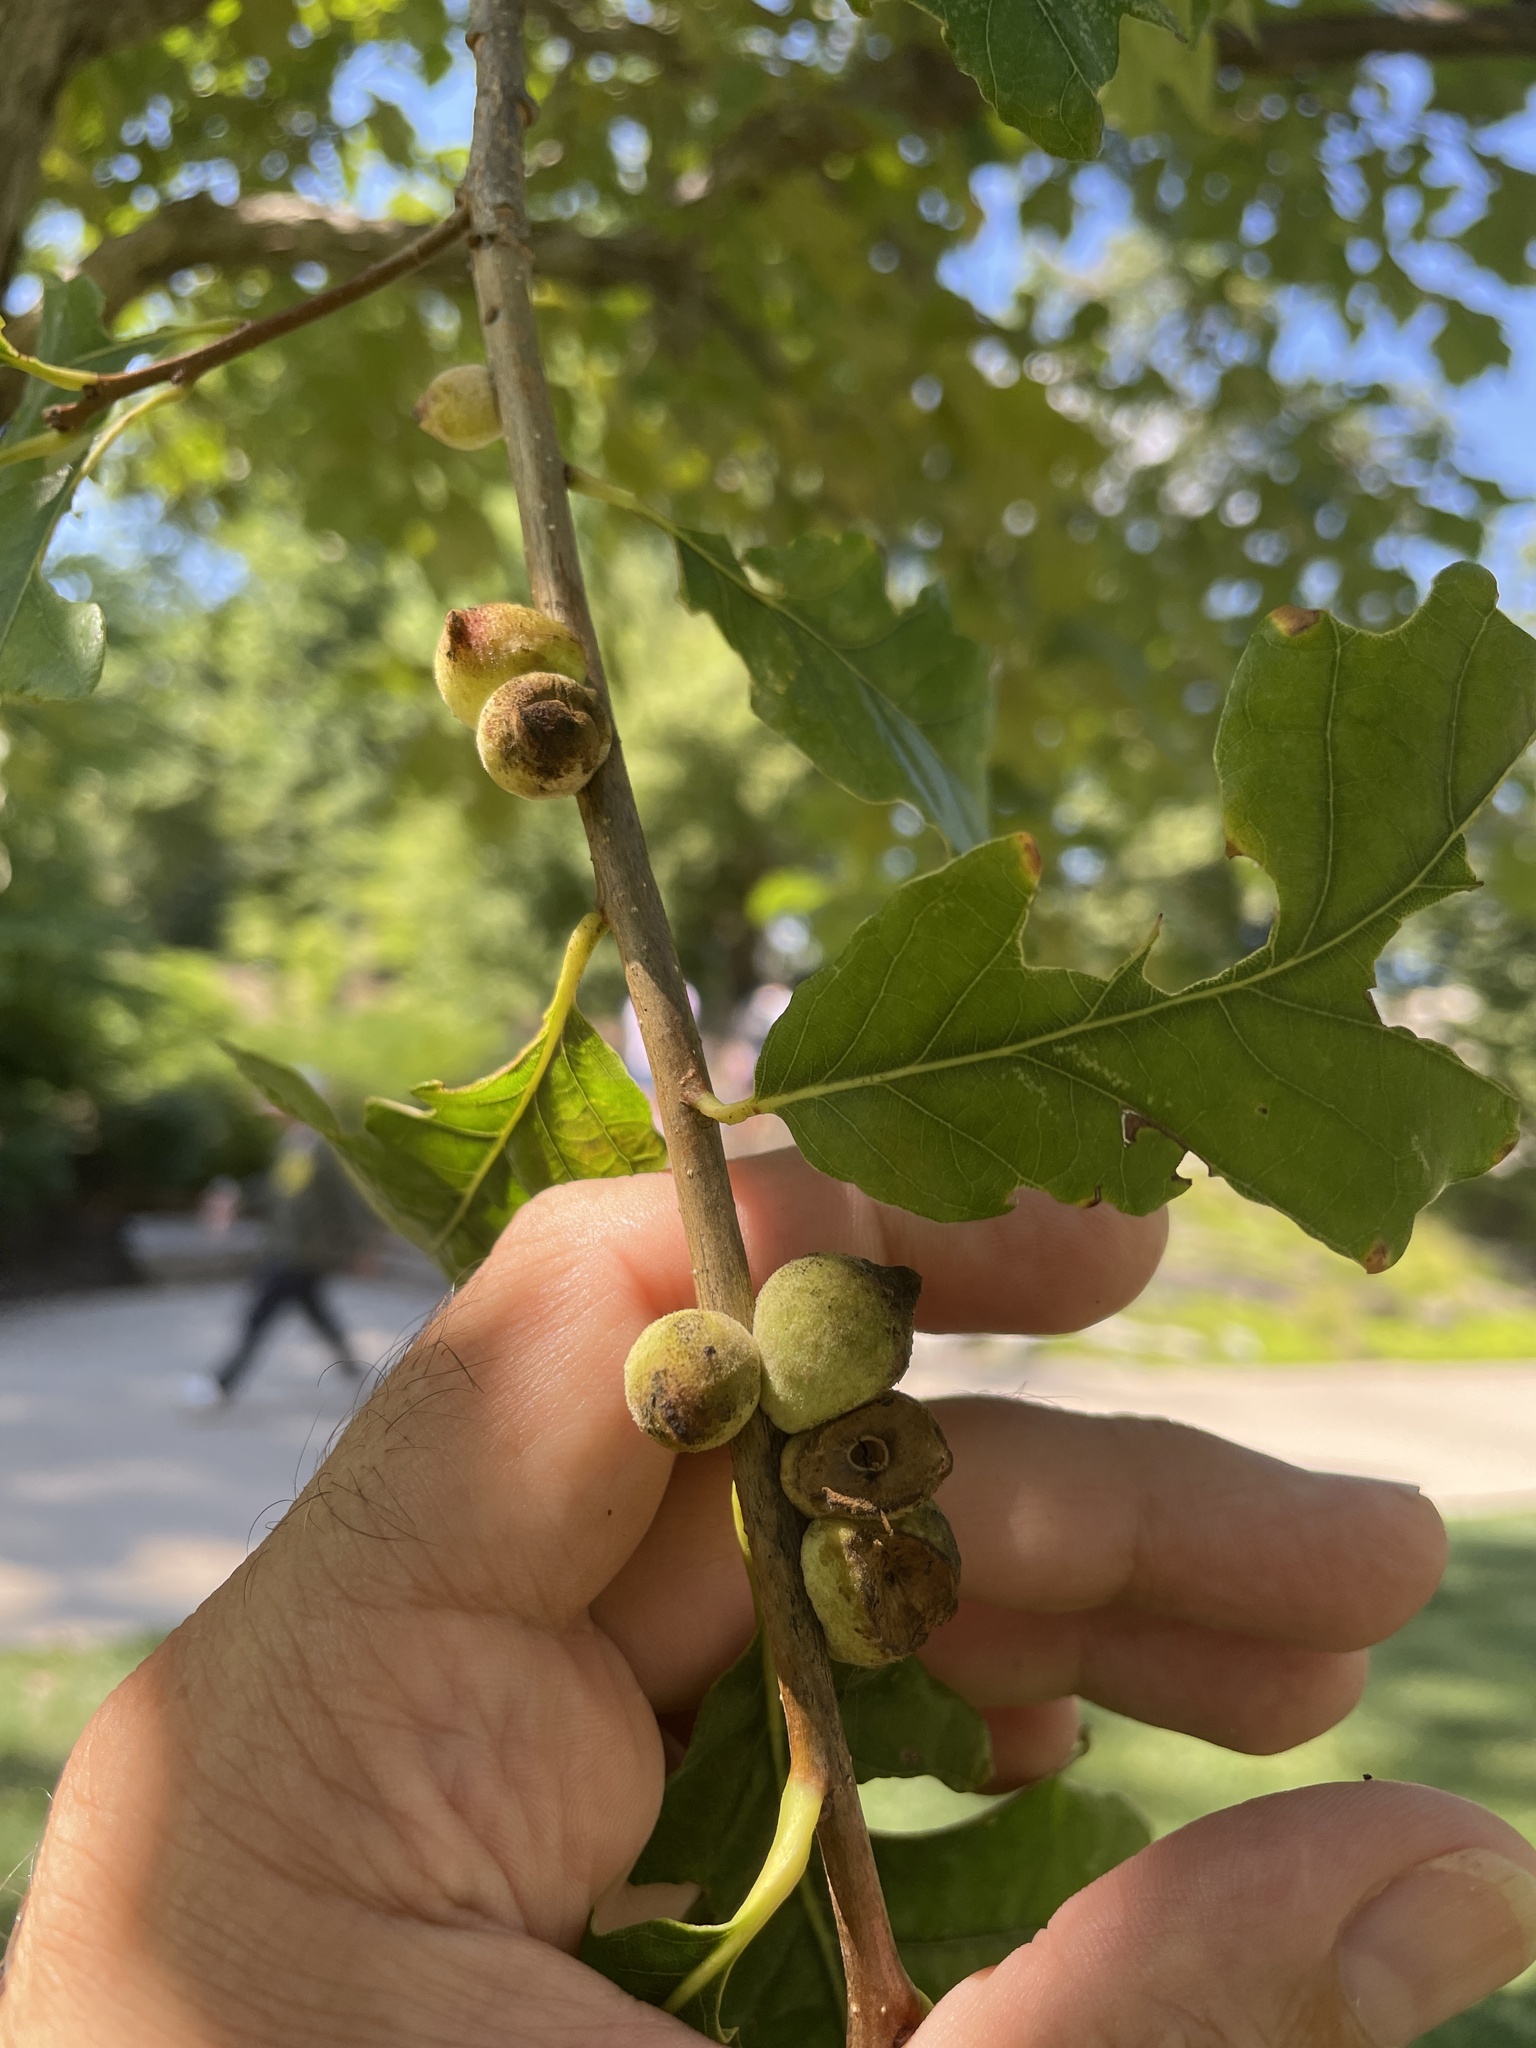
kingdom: Animalia
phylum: Arthropoda
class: Insecta
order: Hymenoptera
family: Cynipidae
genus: Disholcaspis
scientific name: Disholcaspis
